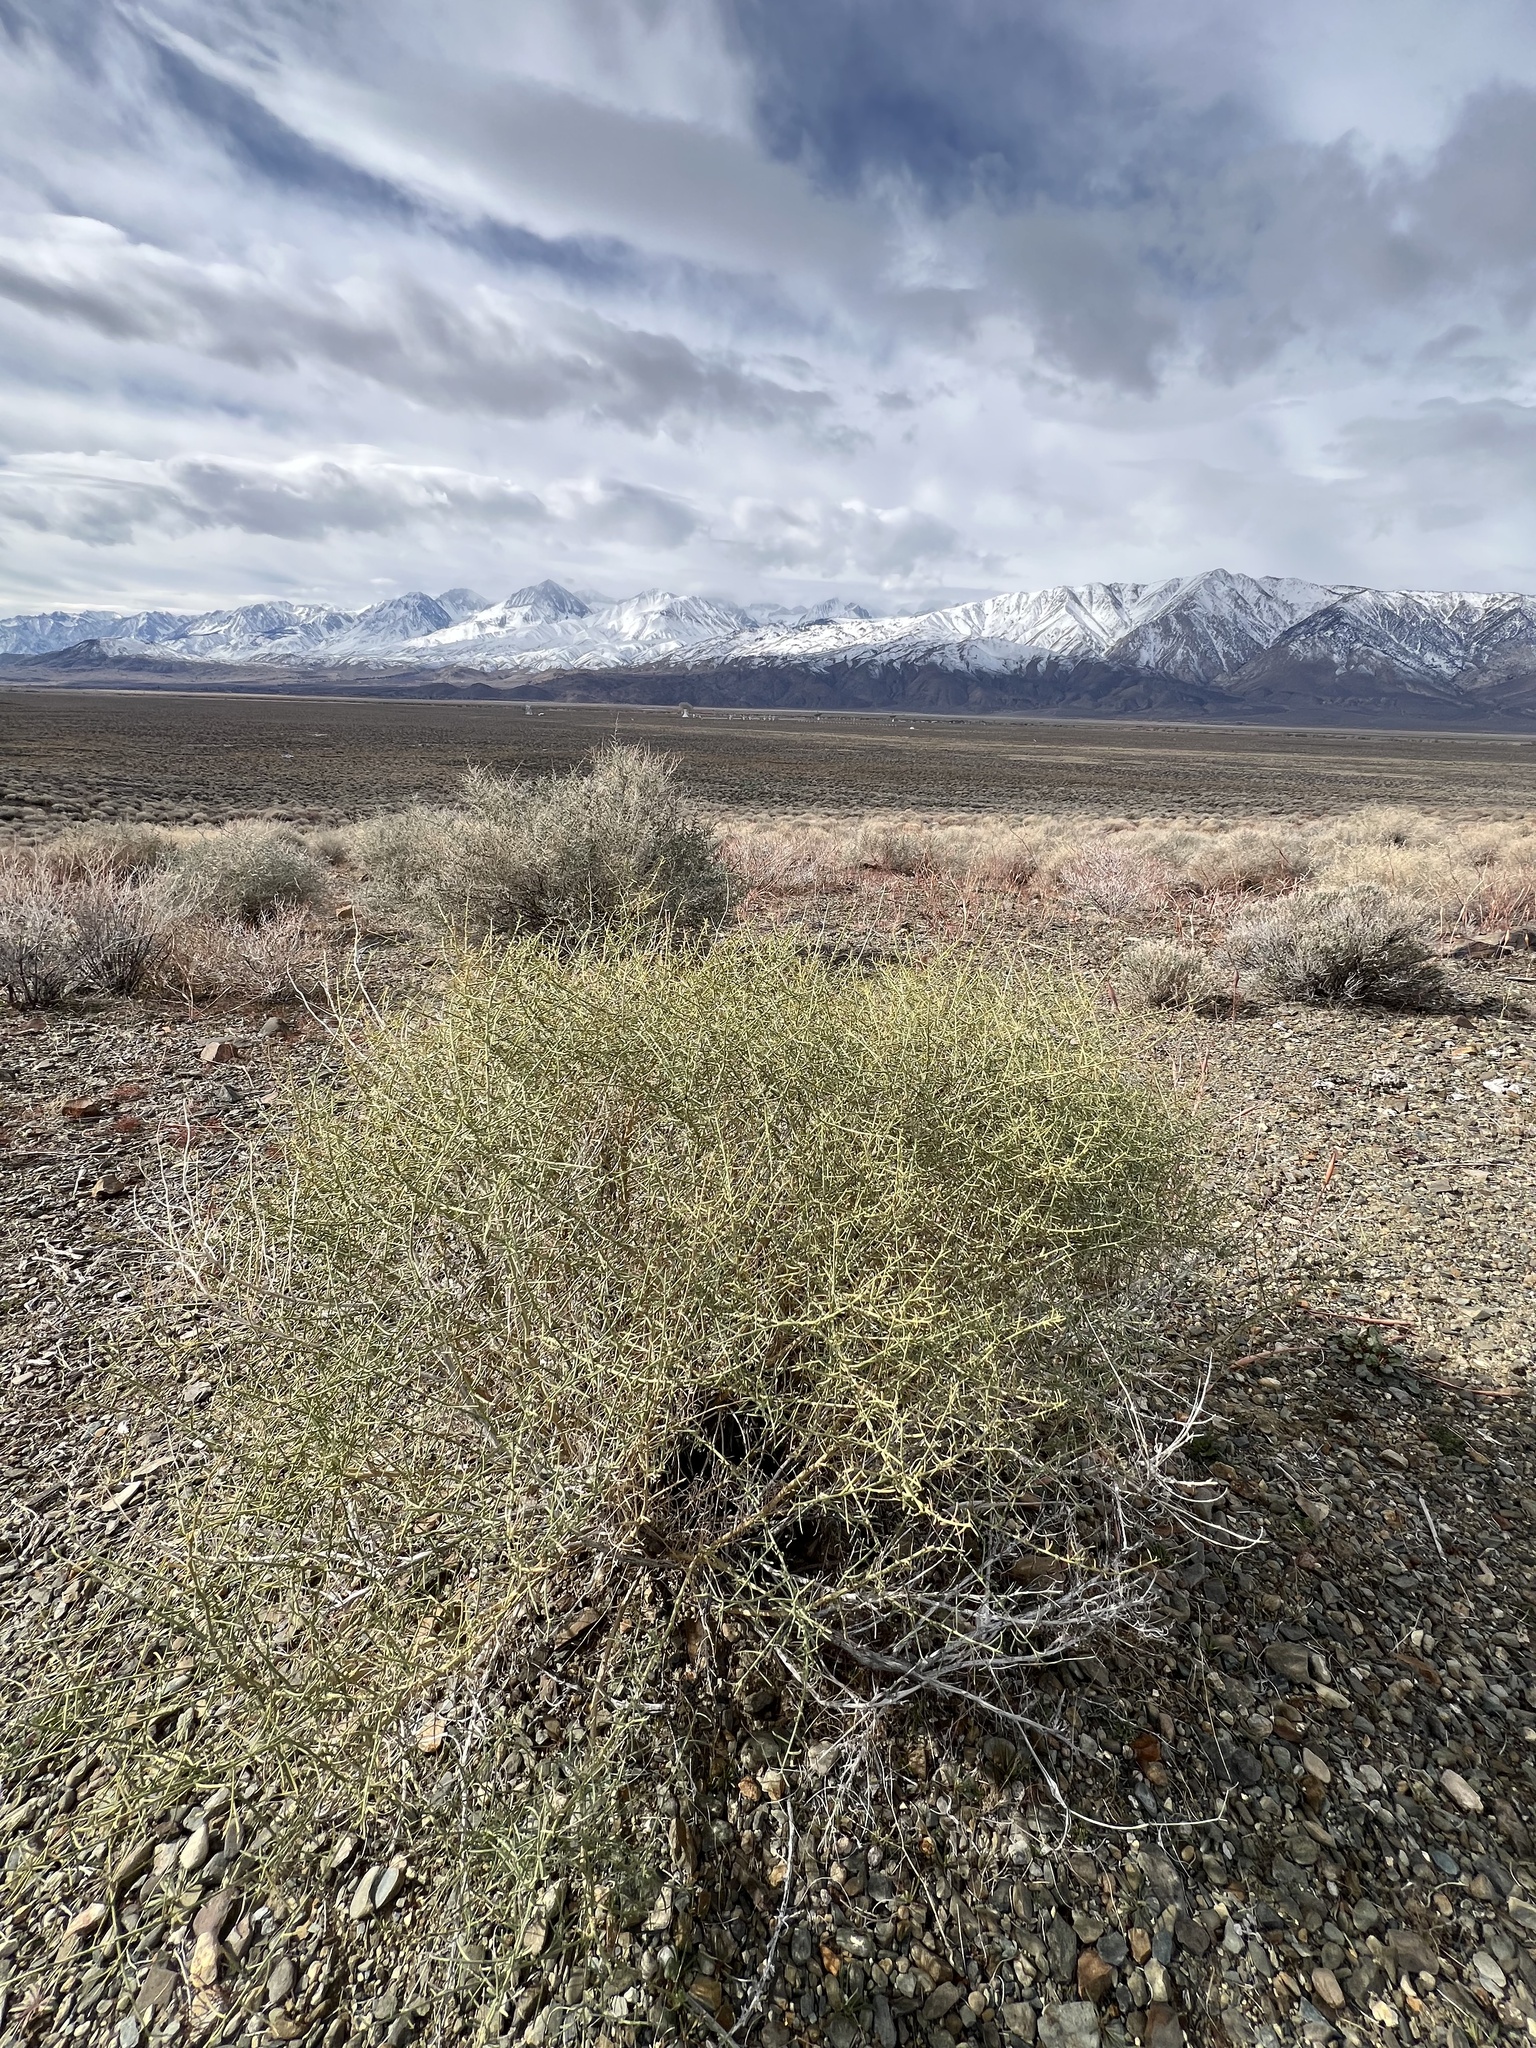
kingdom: Plantae
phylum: Tracheophyta
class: Magnoliopsida
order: Asterales
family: Asteraceae
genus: Ambrosia
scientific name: Ambrosia salsola
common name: Burrobrush
